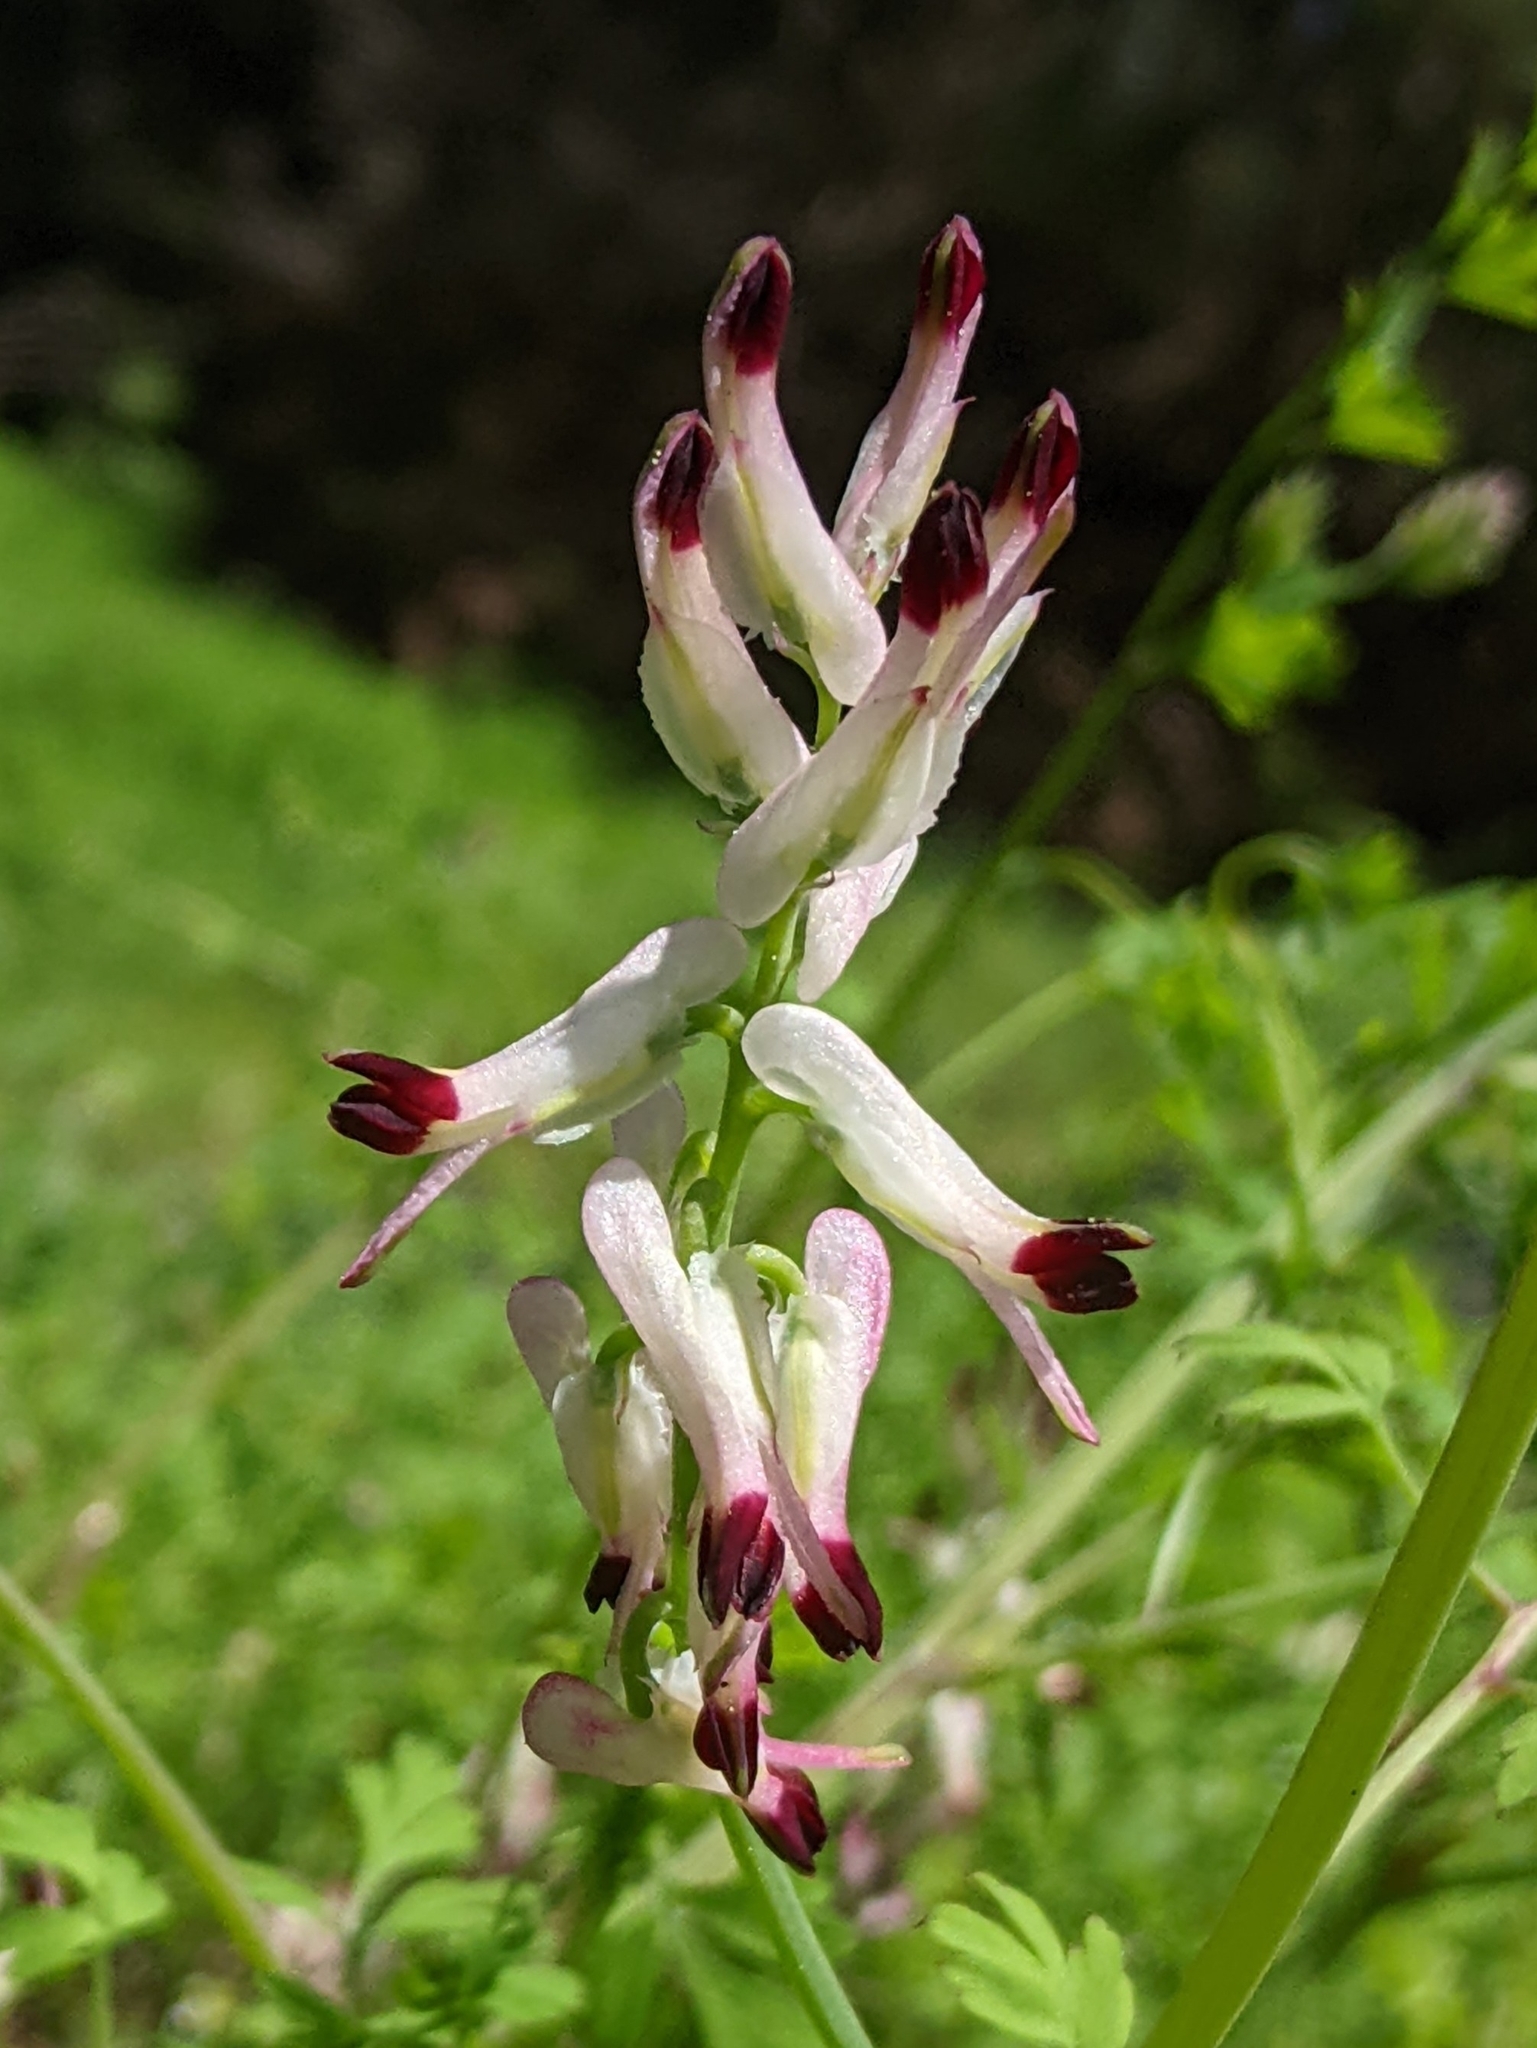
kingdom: Plantae
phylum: Tracheophyta
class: Magnoliopsida
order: Ranunculales
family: Papaveraceae
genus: Fumaria
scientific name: Fumaria capreolata
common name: White ramping-fumitory
